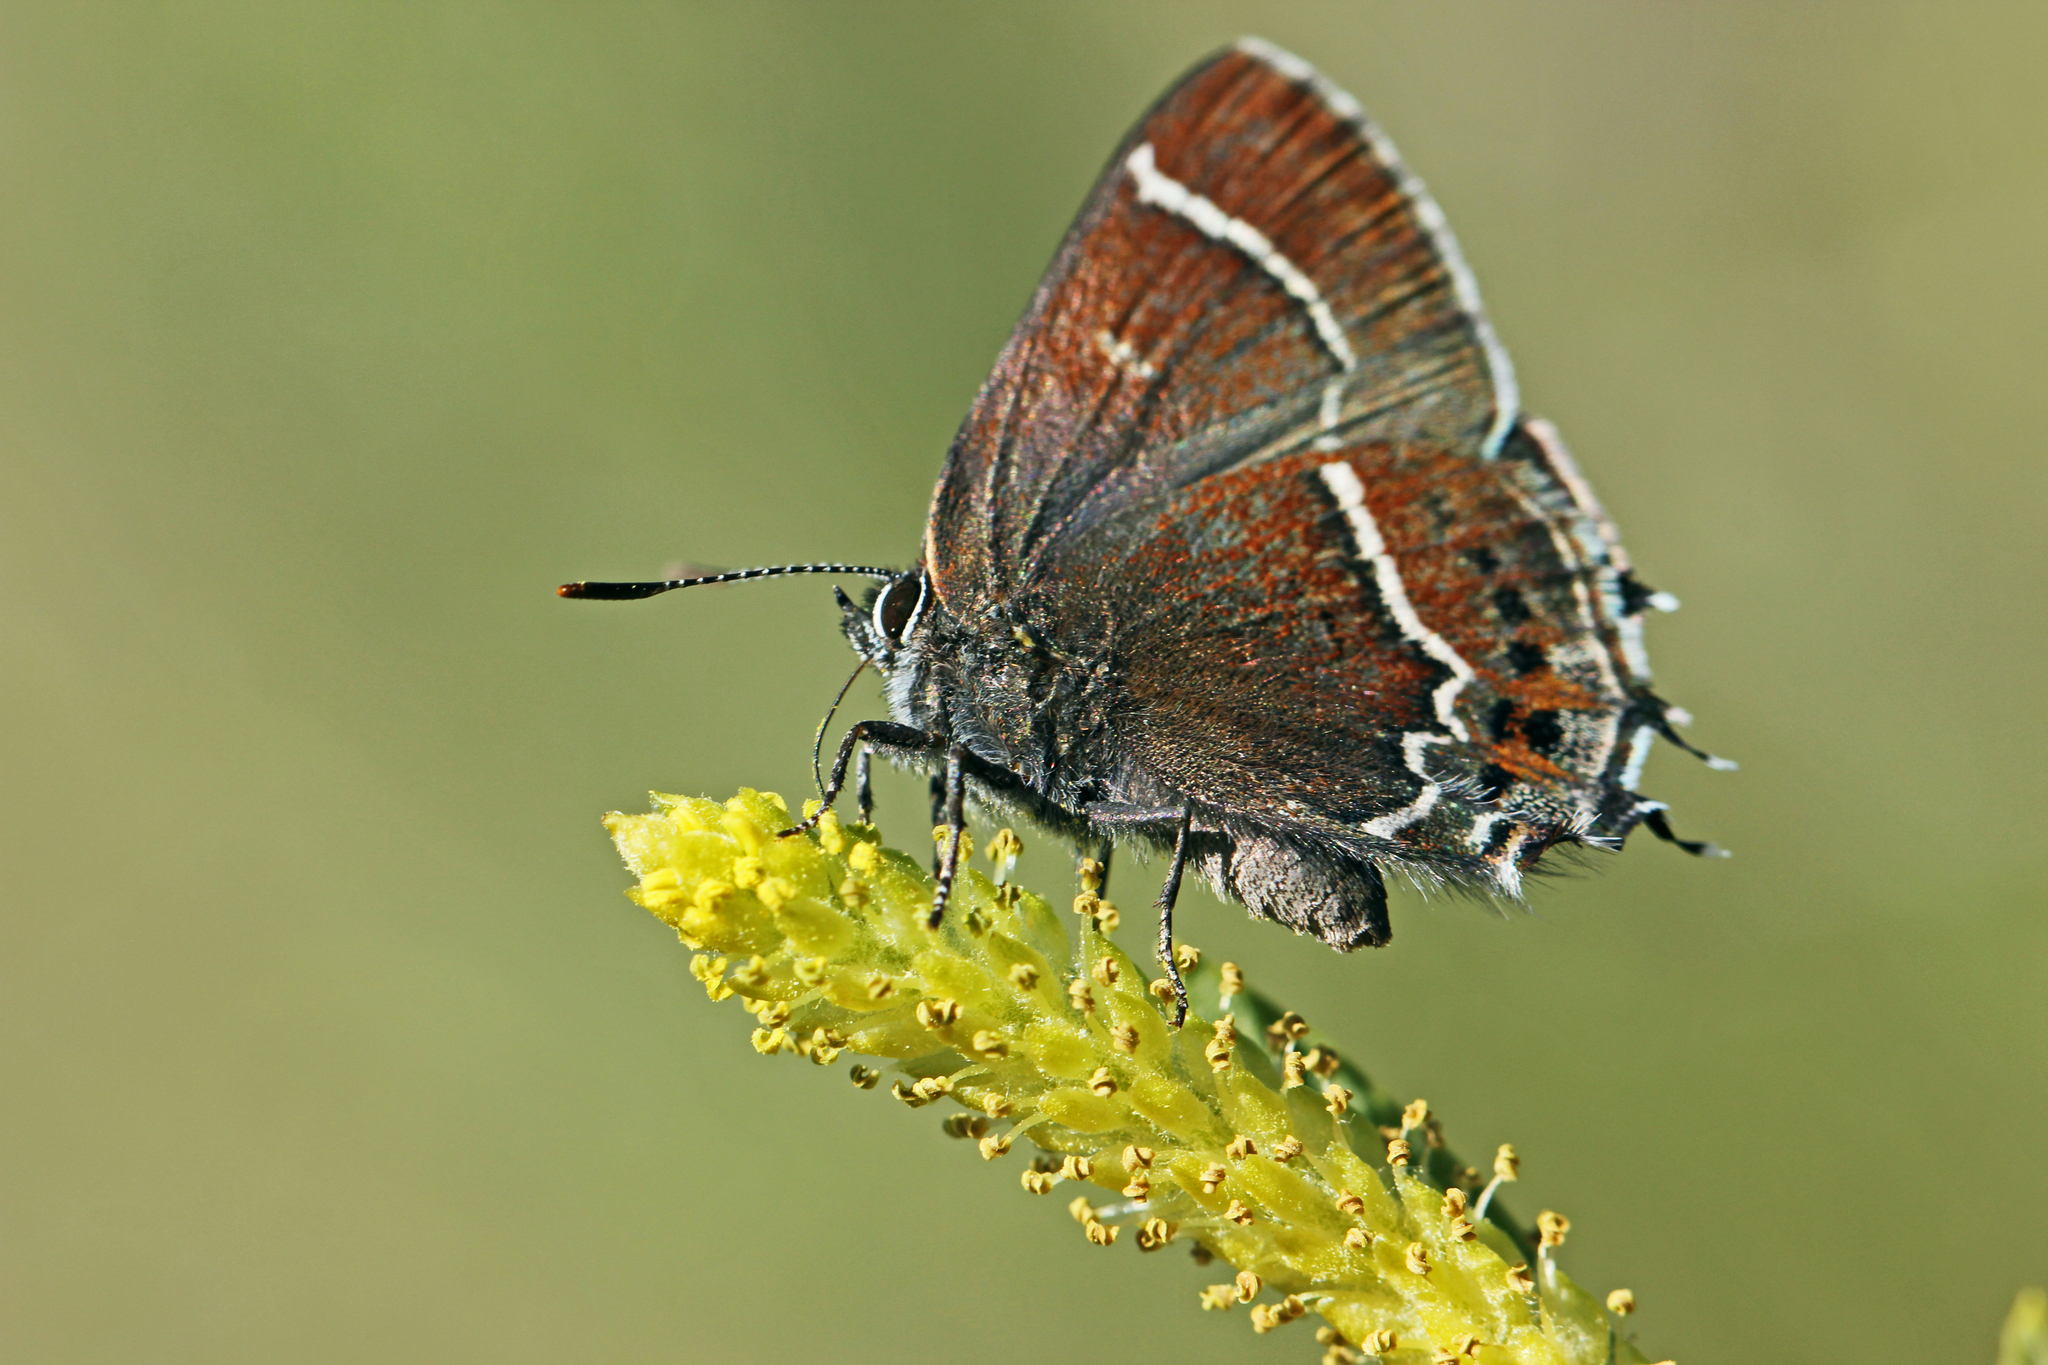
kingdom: Animalia
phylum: Arthropoda
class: Insecta
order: Lepidoptera
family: Lycaenidae
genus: Mitoura
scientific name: Mitoura spinetorum
